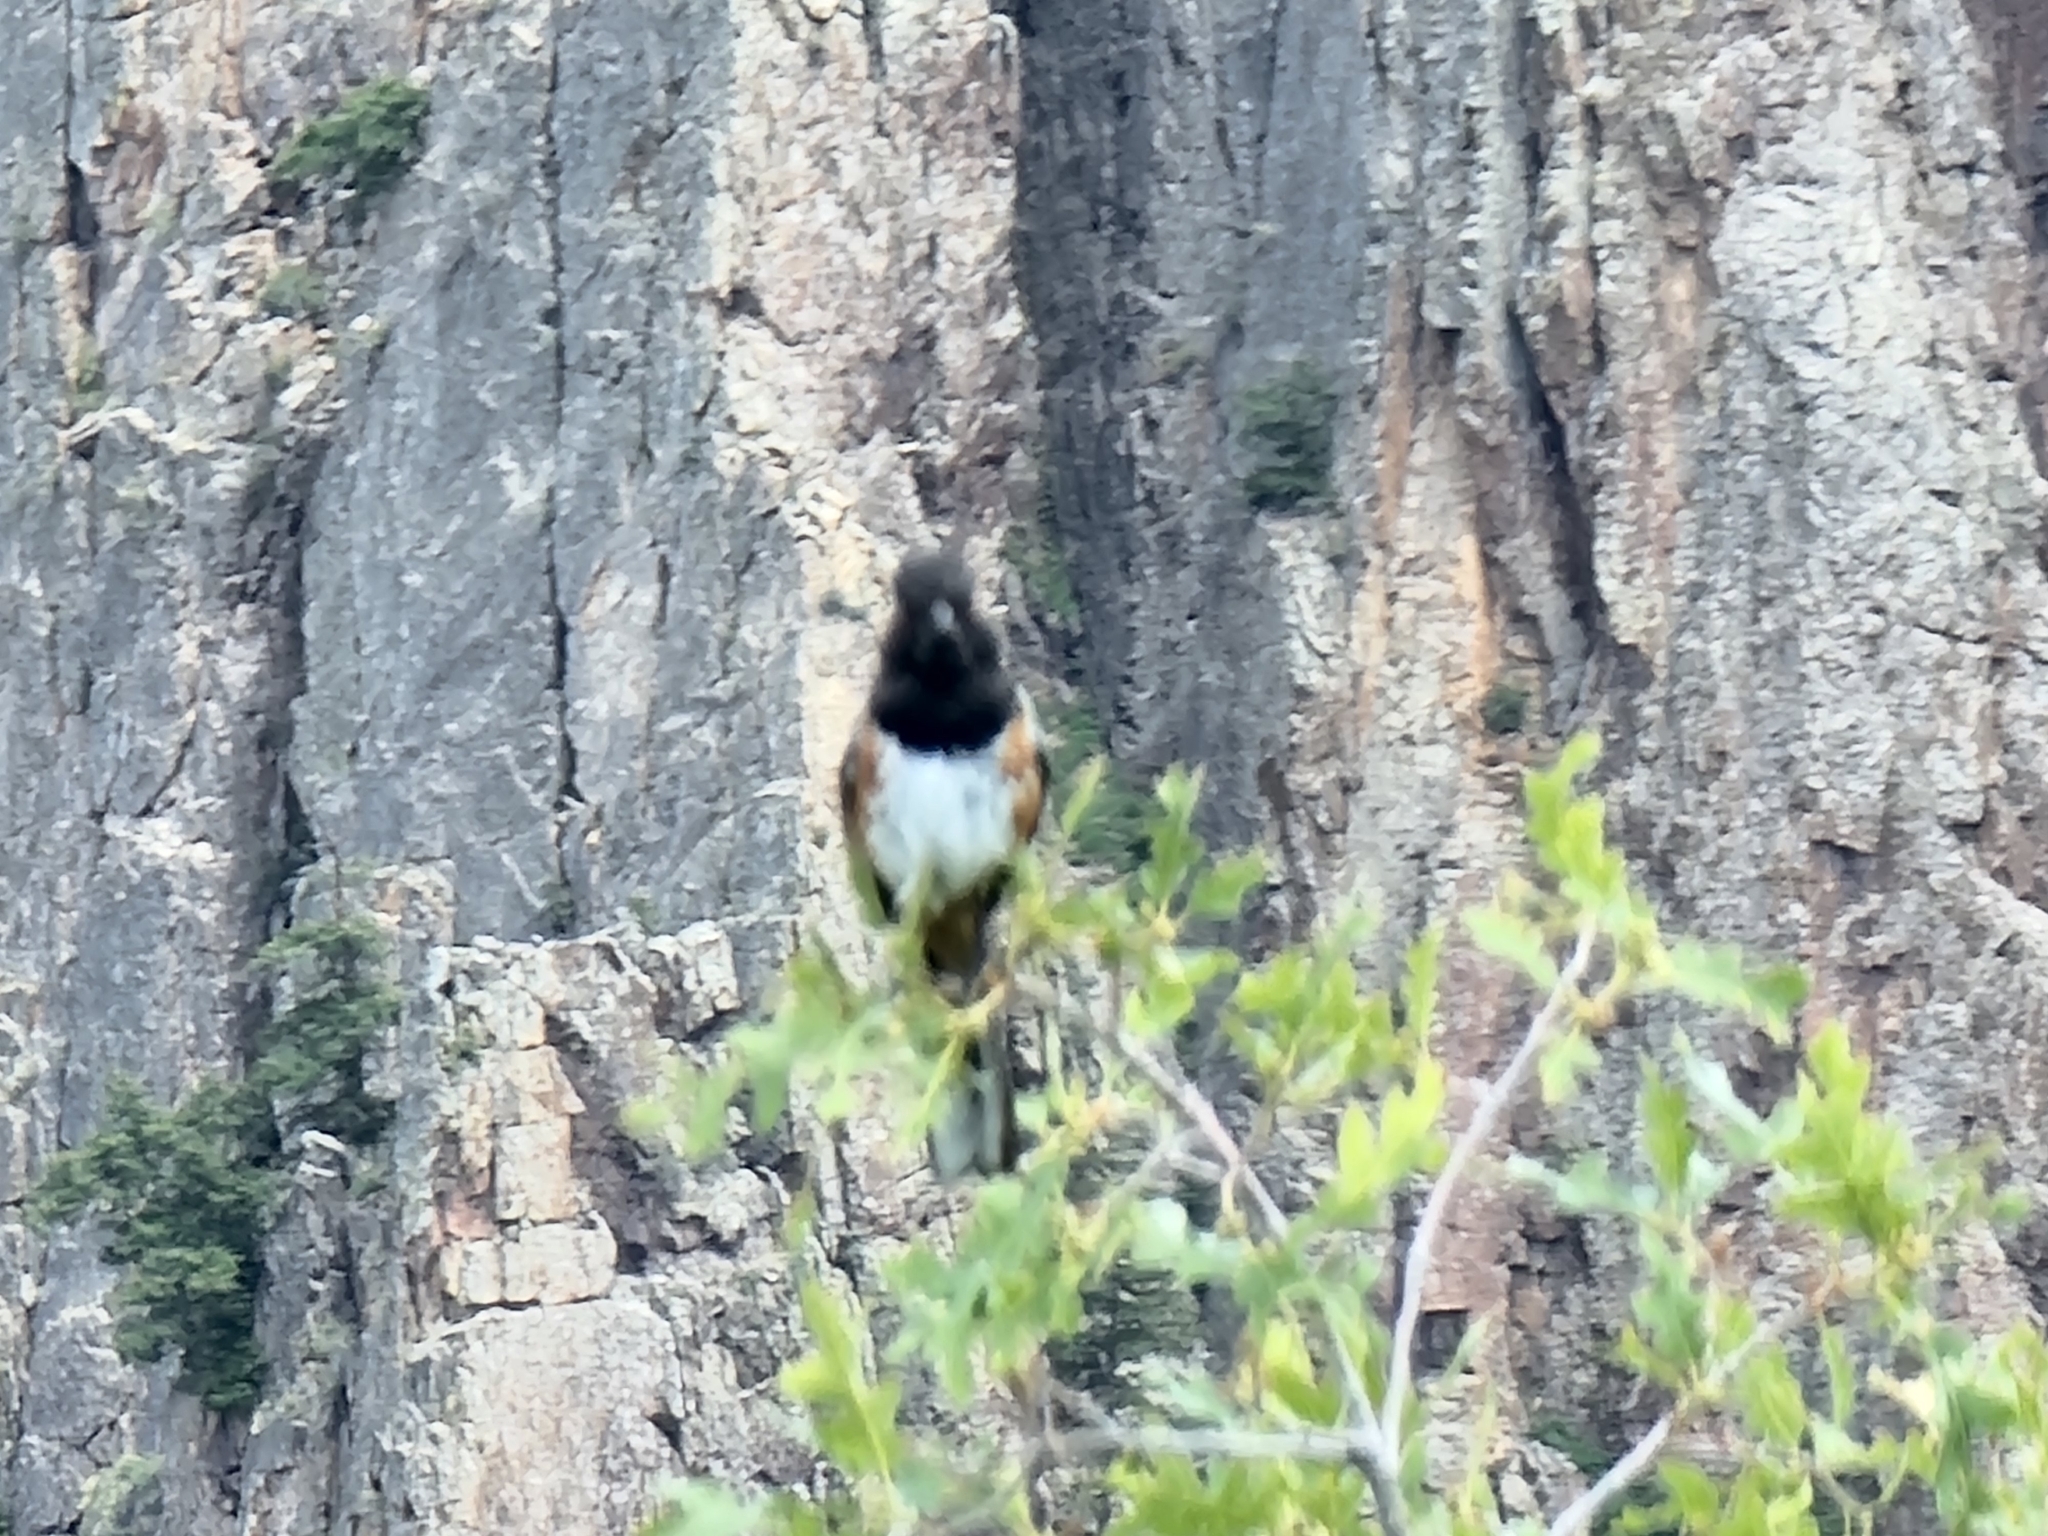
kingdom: Animalia
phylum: Chordata
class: Aves
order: Passeriformes
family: Passerellidae
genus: Pipilo
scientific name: Pipilo maculatus
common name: Spotted towhee
